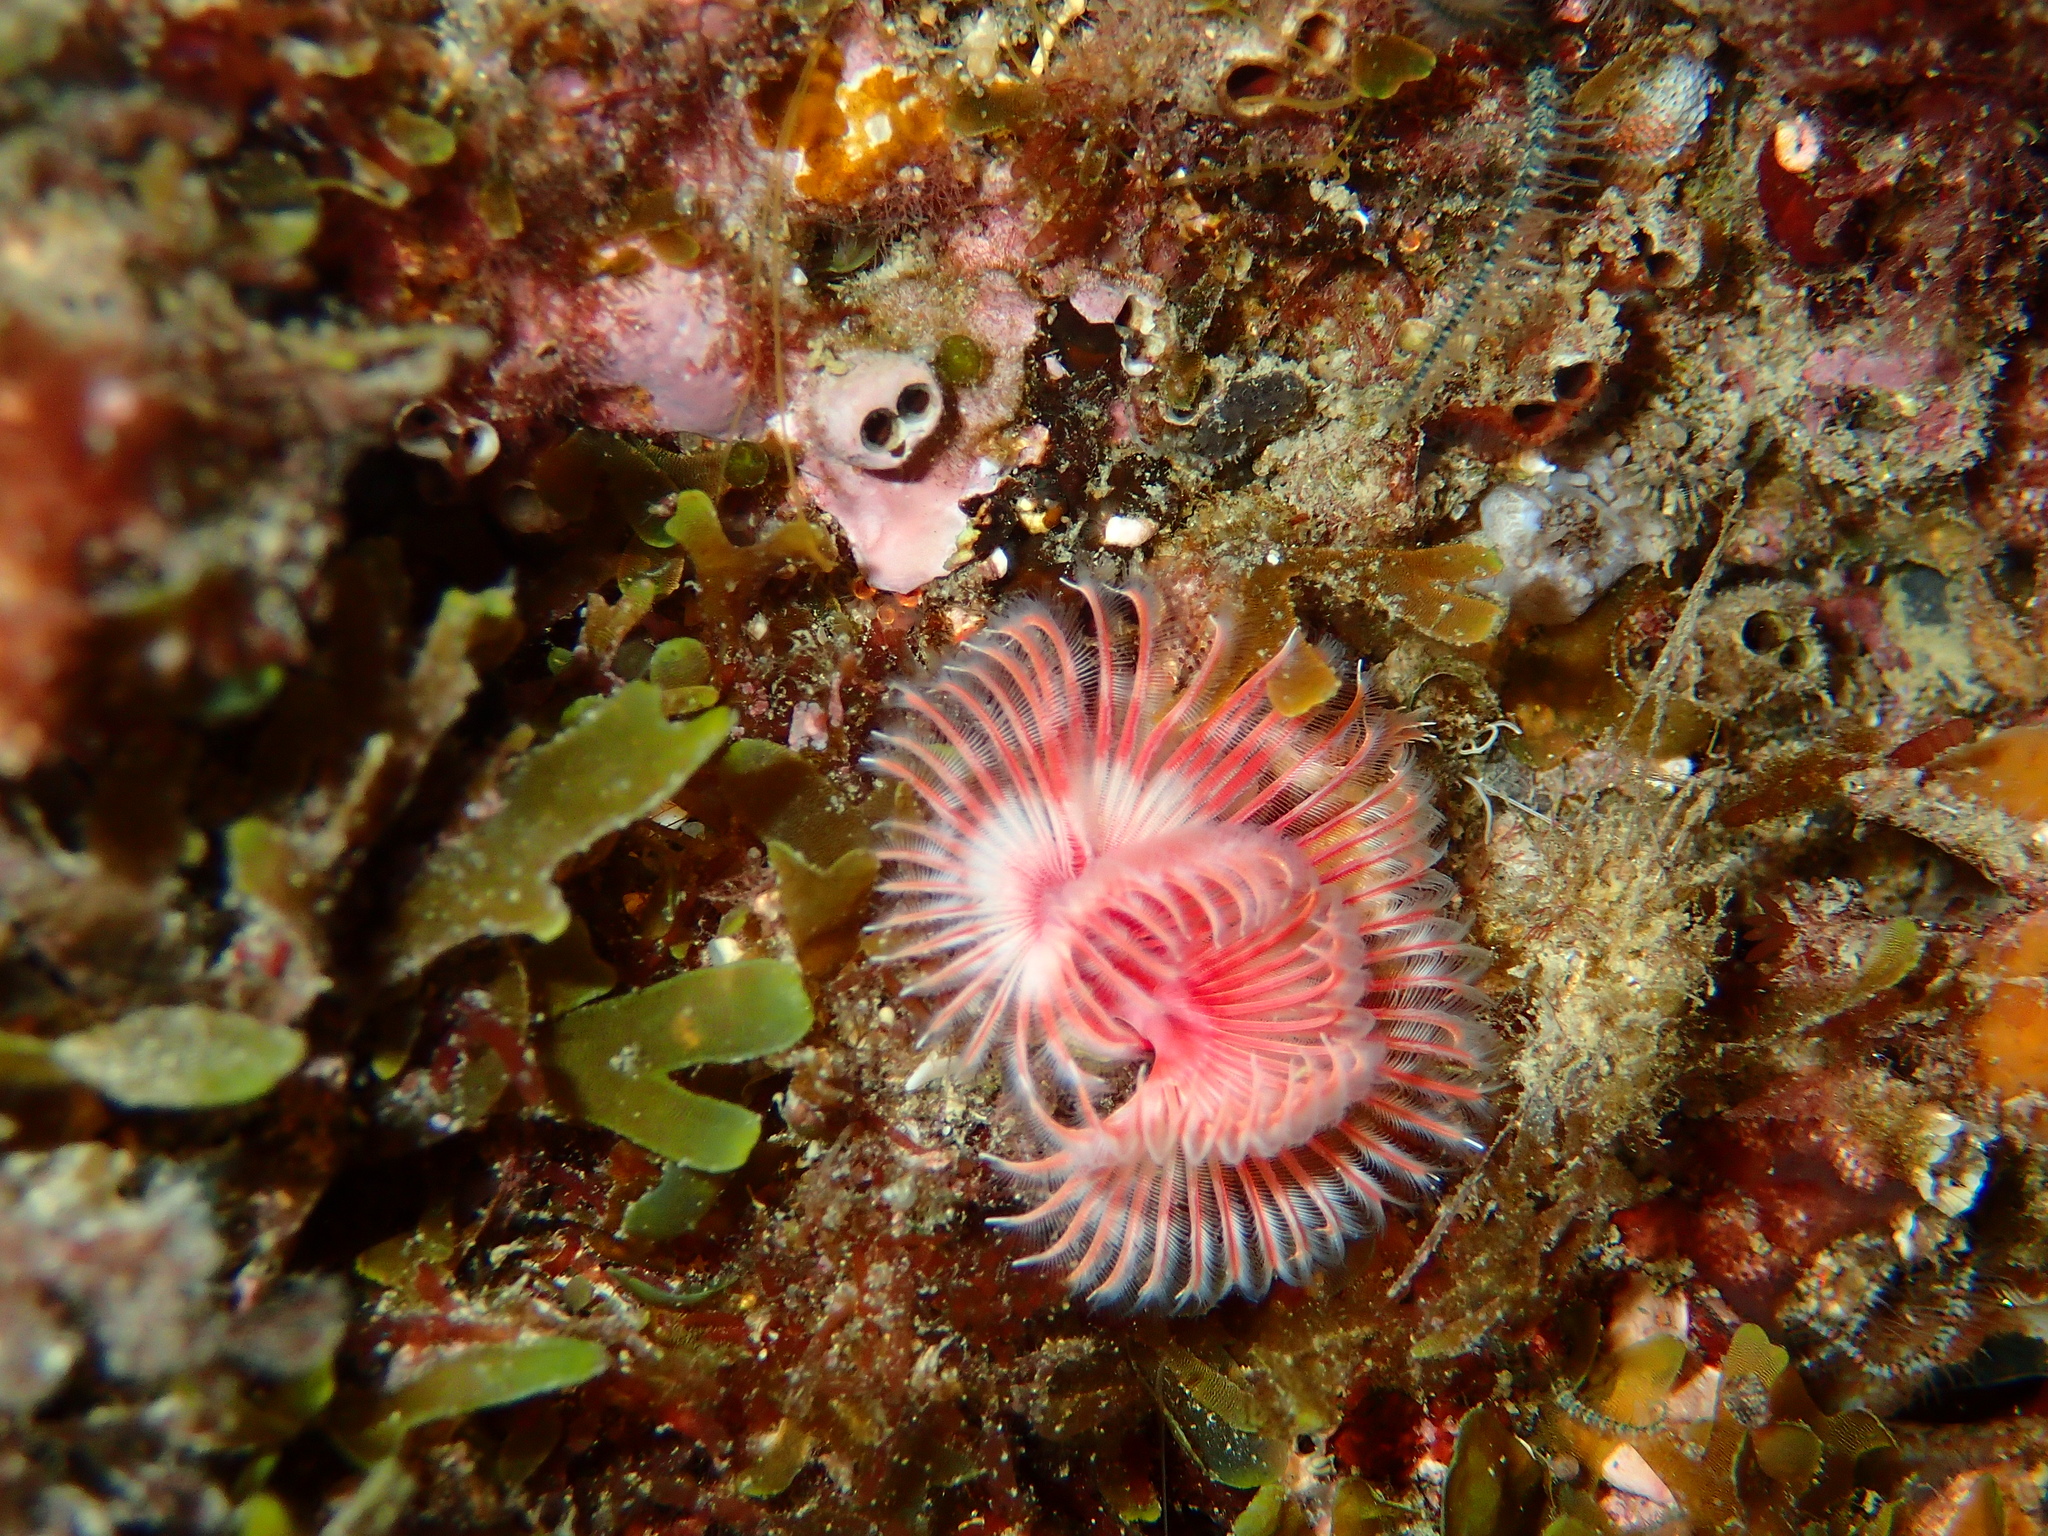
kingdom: Animalia
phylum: Annelida
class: Polychaeta
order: Sabellida
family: Serpulidae
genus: Serpula
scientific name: Serpula vermicularis
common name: Calcareous tubeworm
